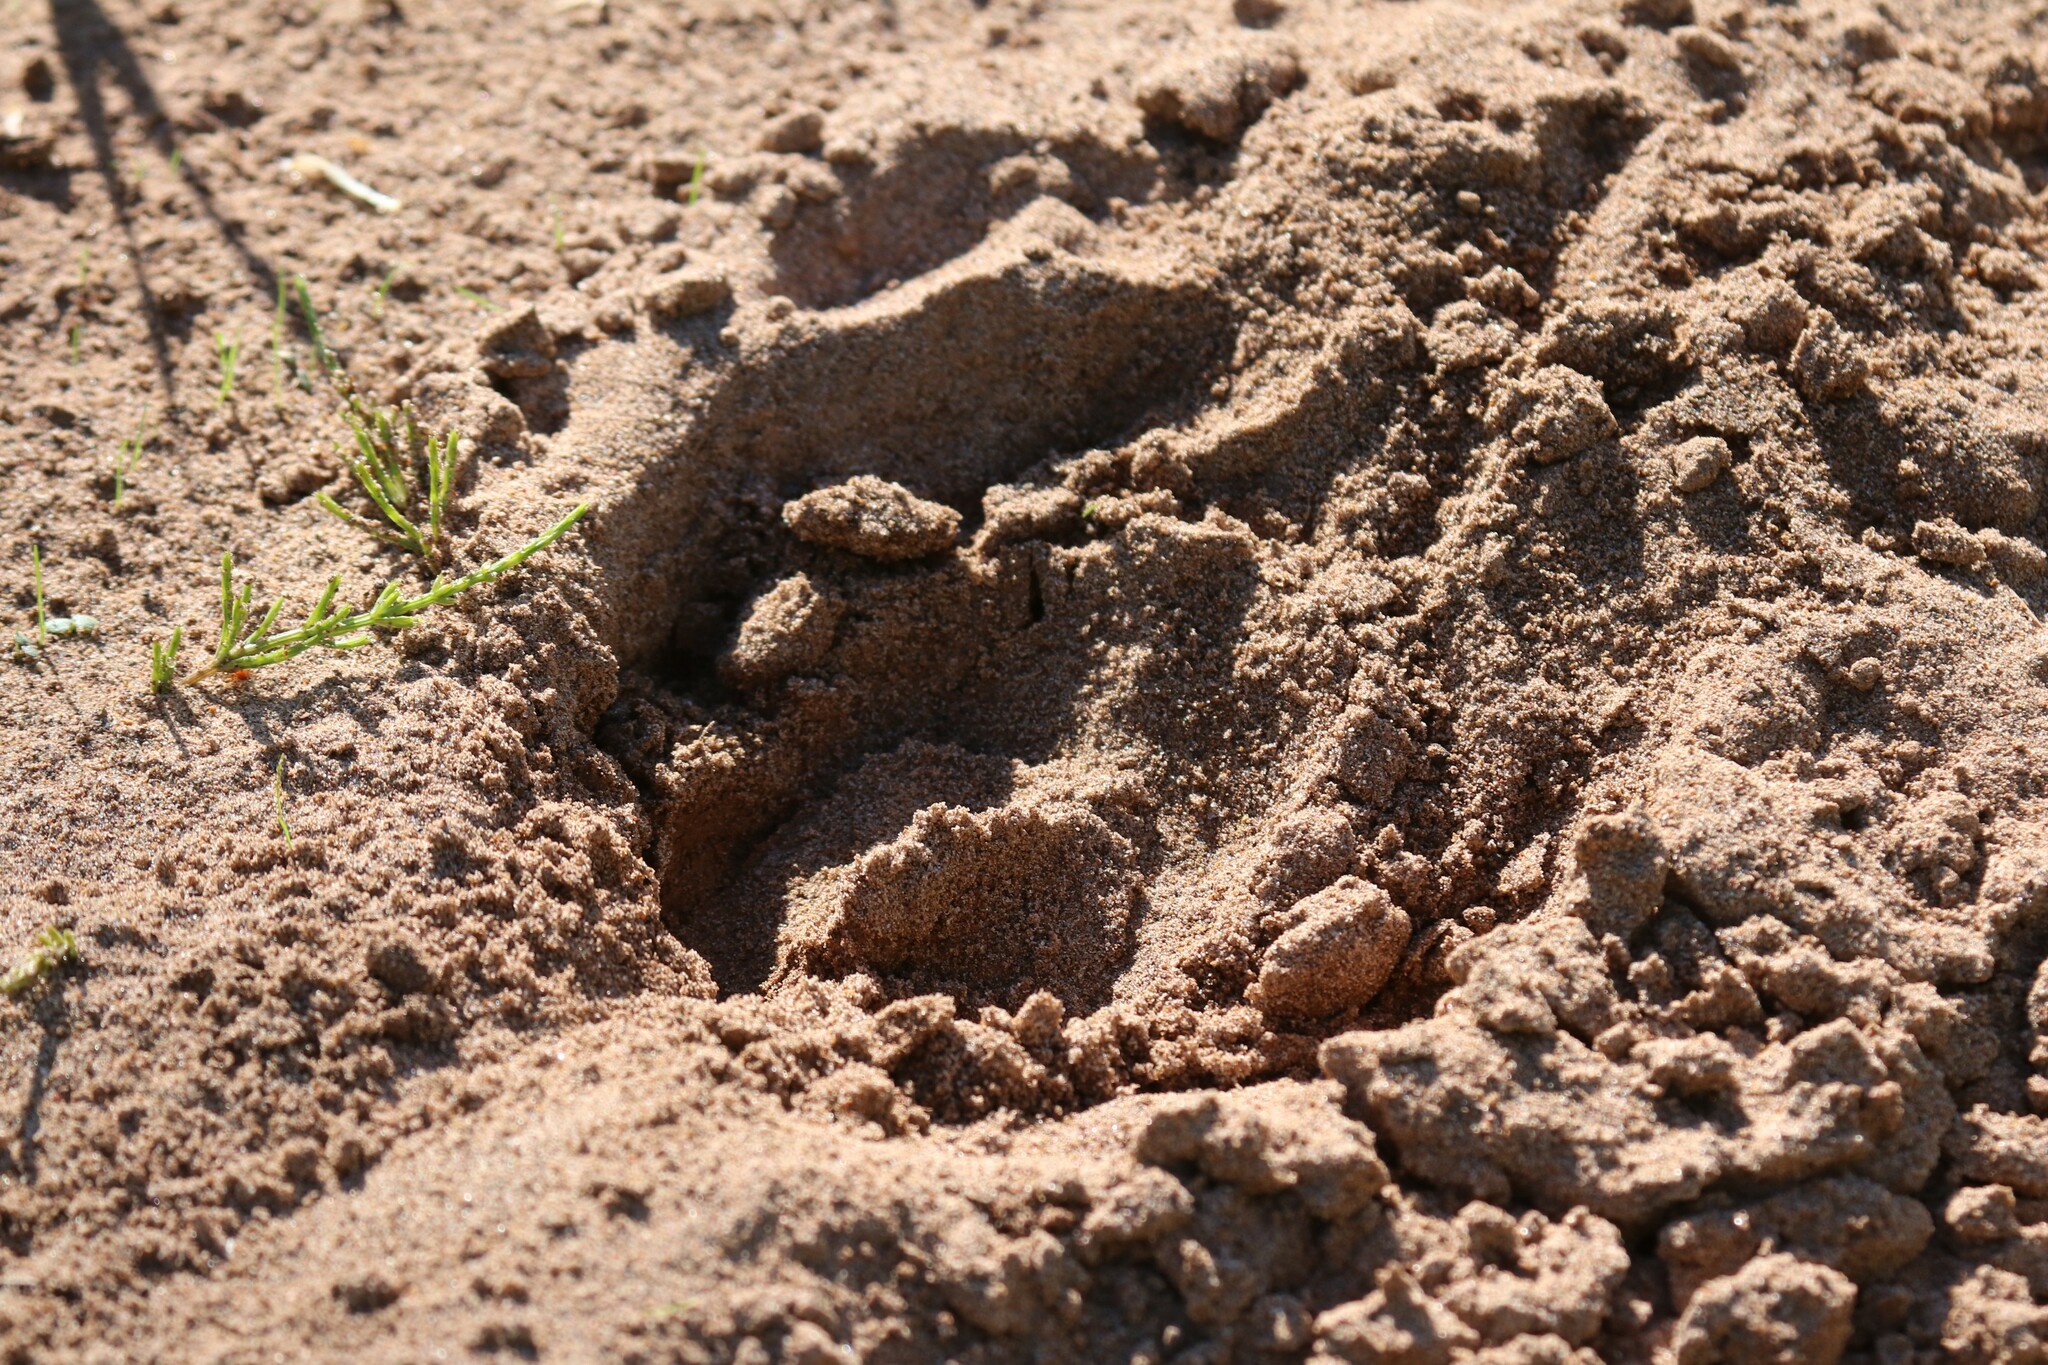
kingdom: Animalia
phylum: Chordata
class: Mammalia
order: Artiodactyla
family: Cervidae
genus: Alces
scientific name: Alces alces
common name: Moose
